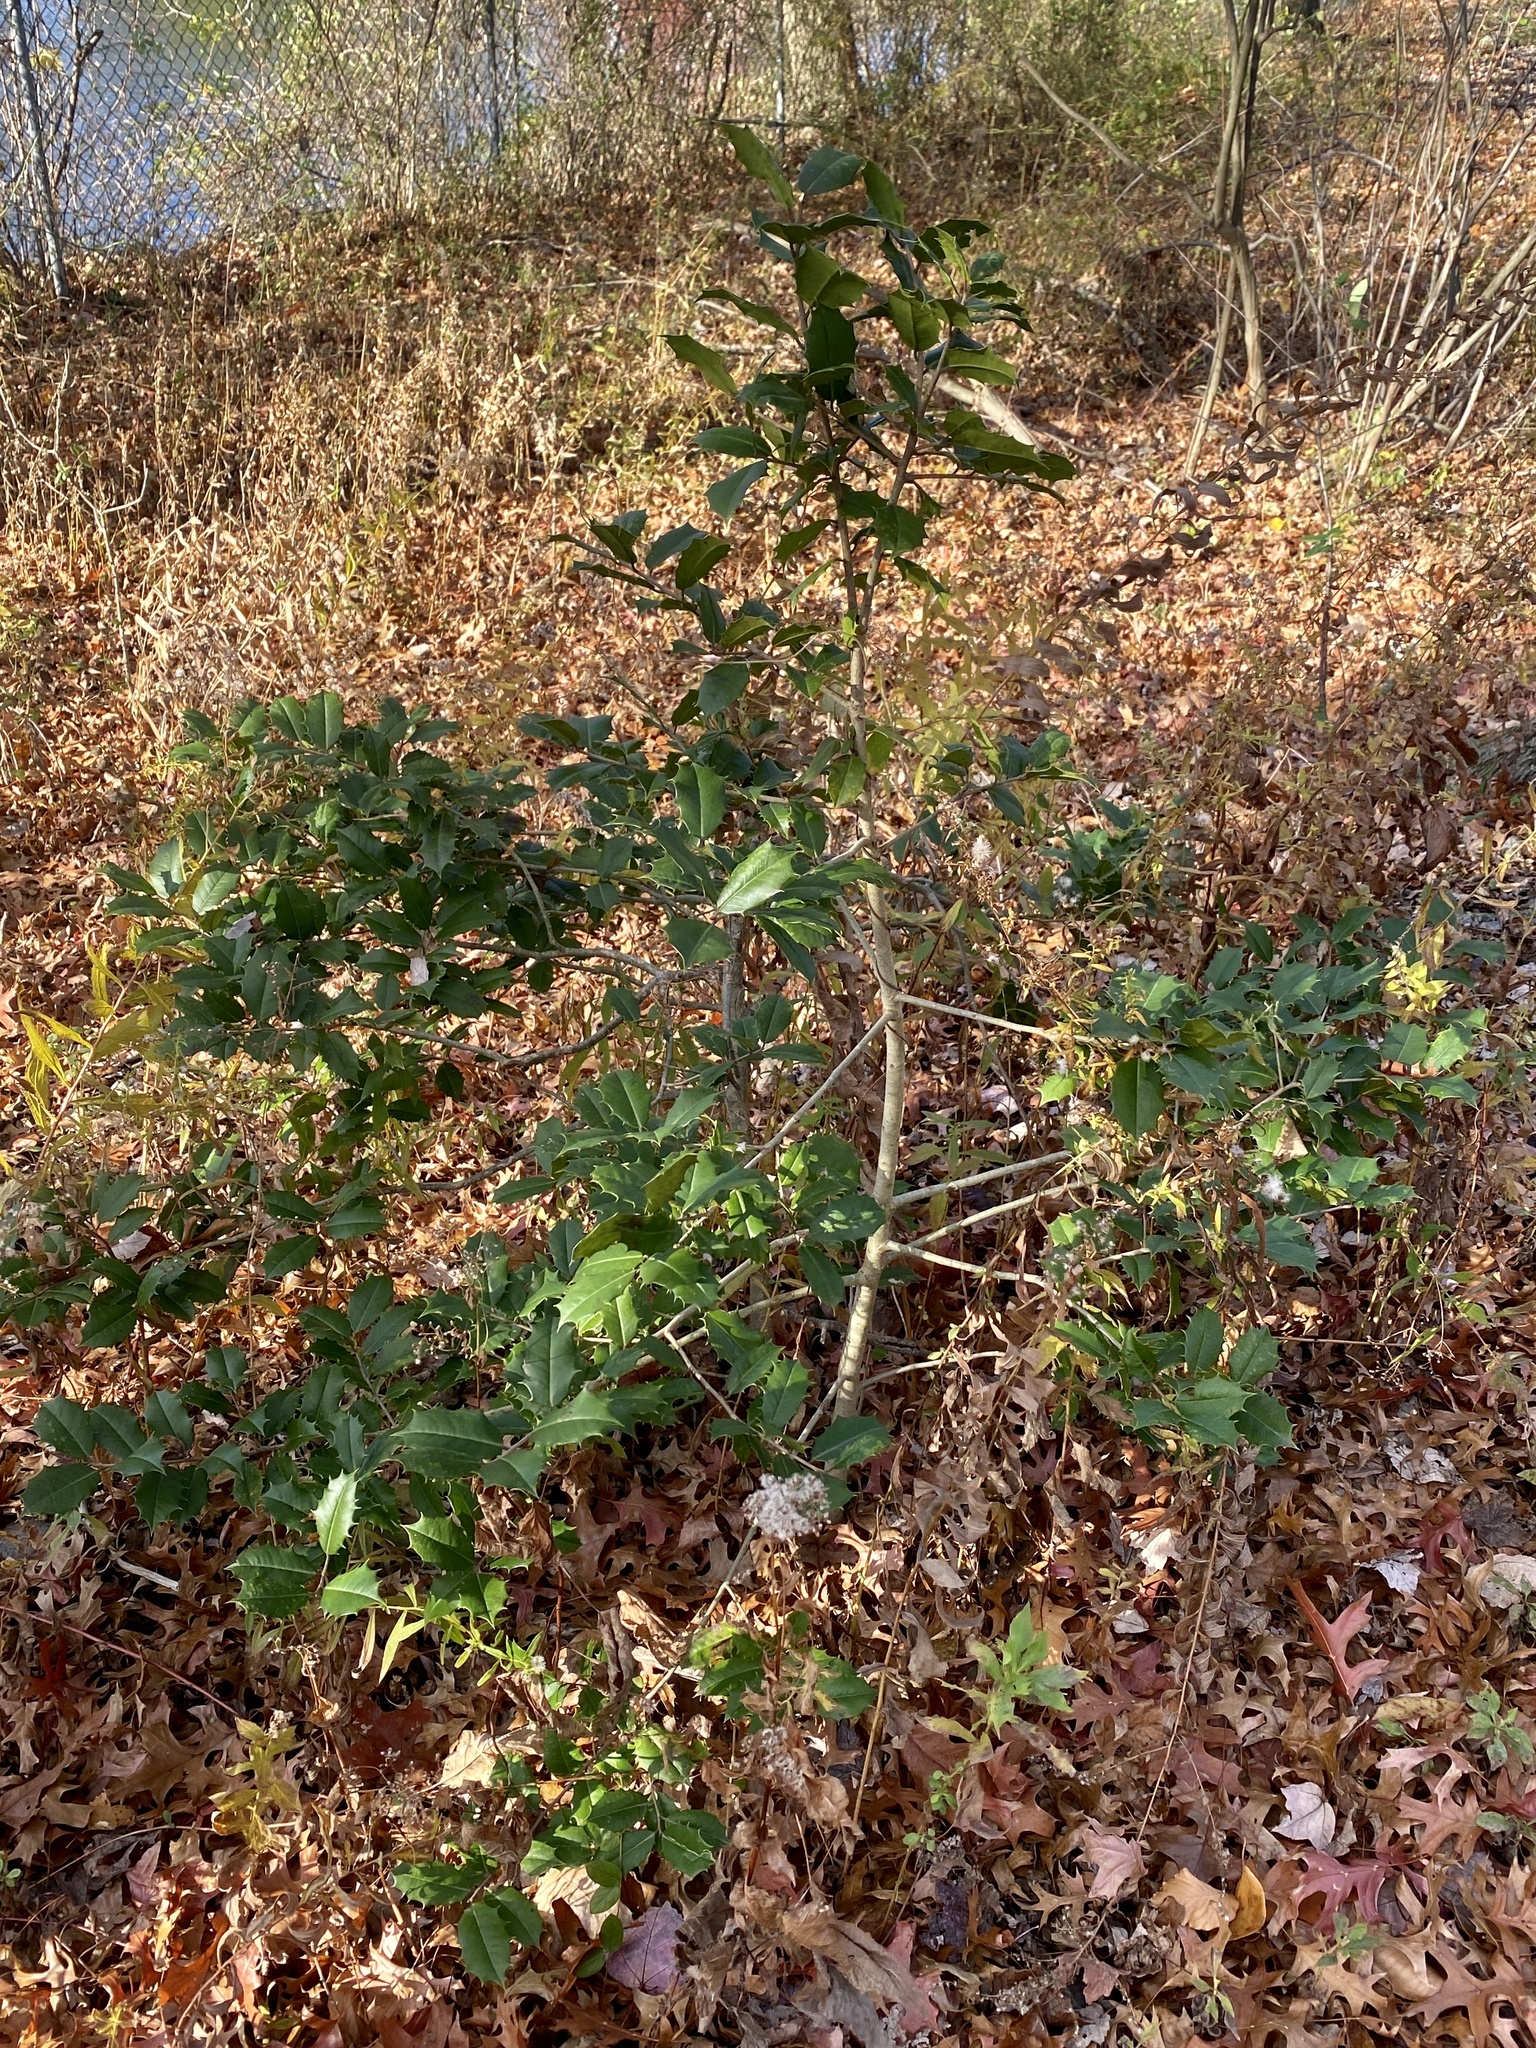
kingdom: Plantae
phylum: Tracheophyta
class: Magnoliopsida
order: Aquifoliales
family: Aquifoliaceae
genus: Ilex
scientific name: Ilex opaca
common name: American holly
